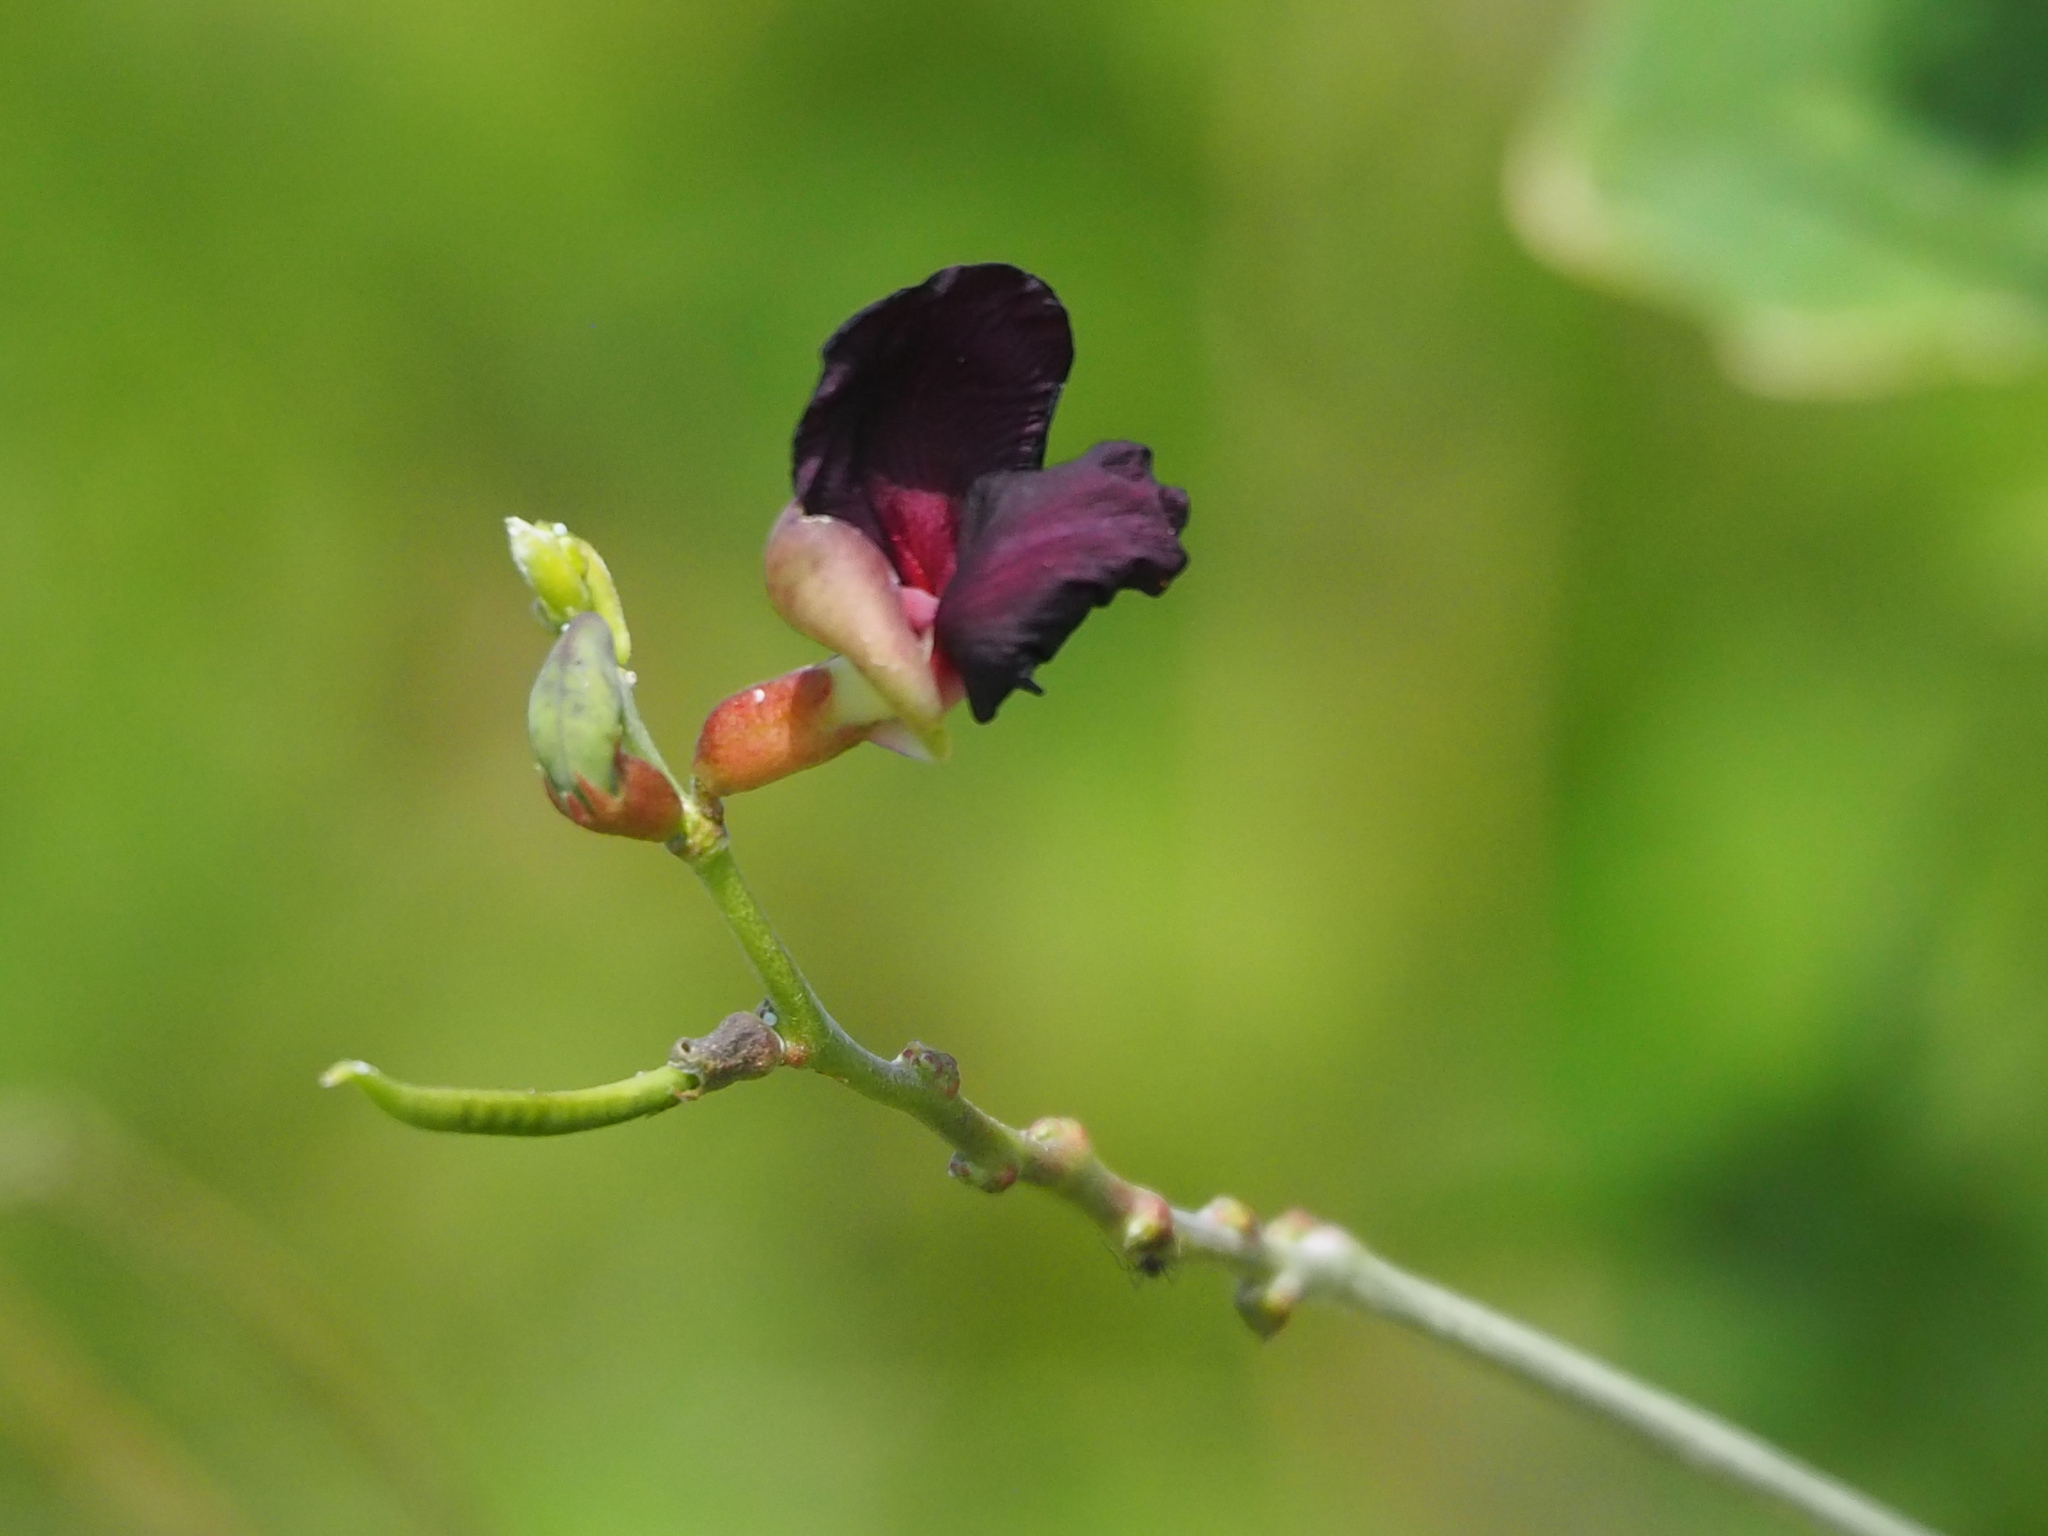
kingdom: Plantae
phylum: Tracheophyta
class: Magnoliopsida
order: Fabales
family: Fabaceae
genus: Macroptilium
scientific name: Macroptilium atropurpureum
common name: Purple bushbean
